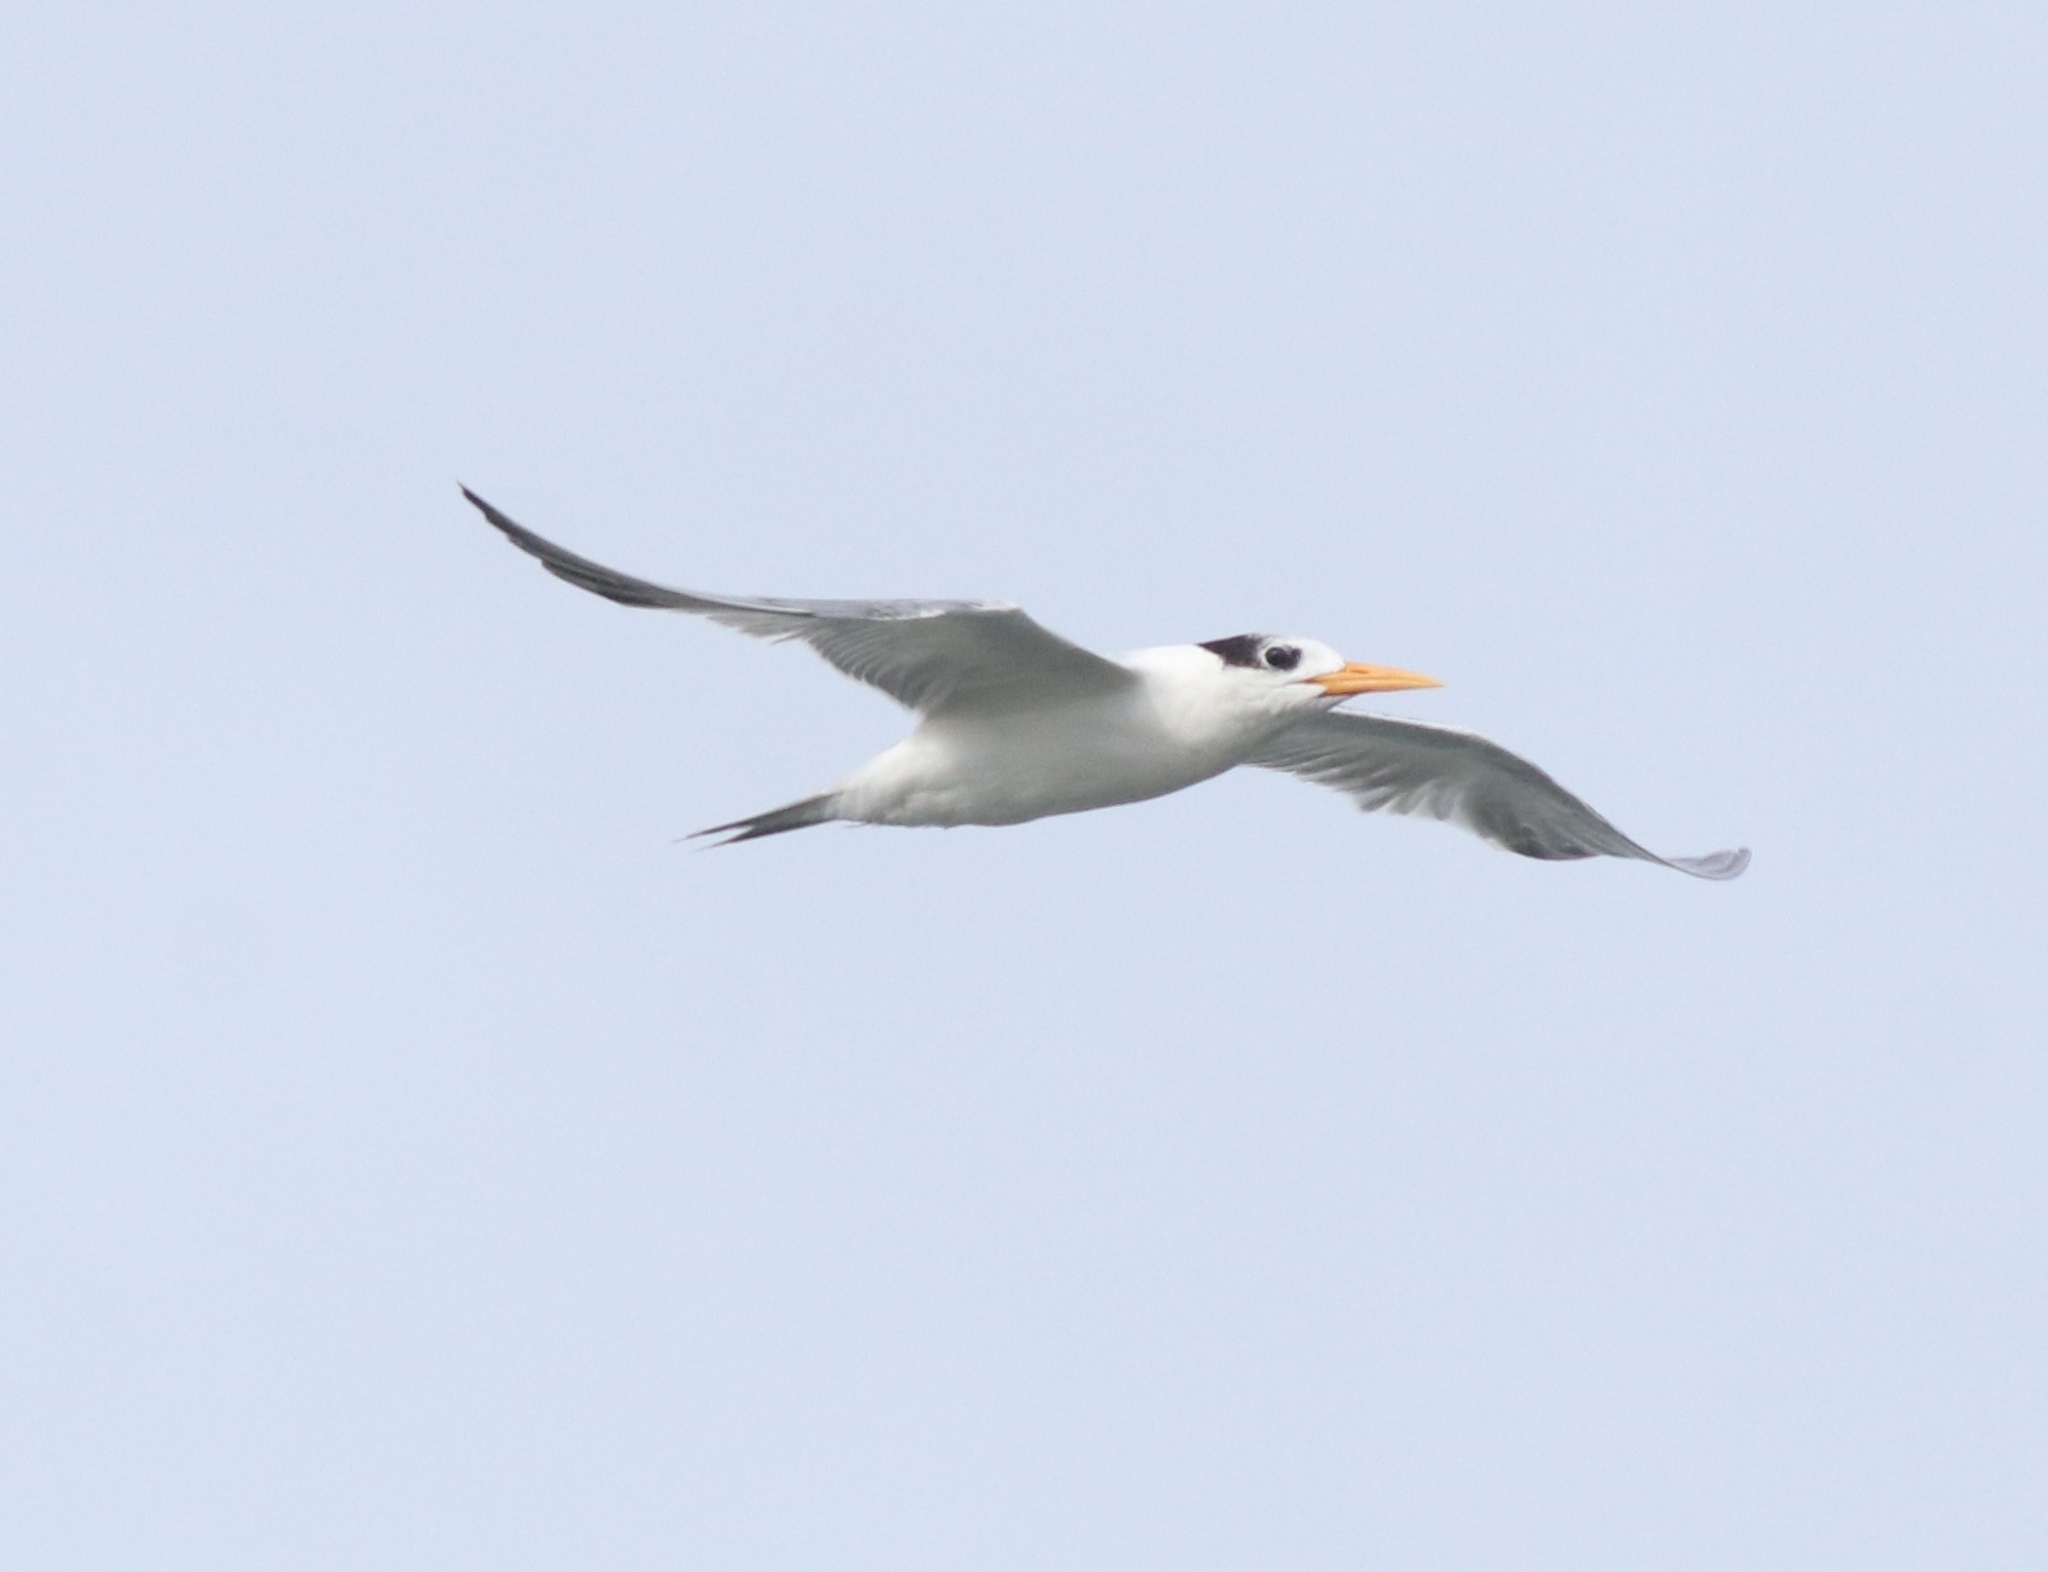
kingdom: Animalia
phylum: Chordata
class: Aves
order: Charadriiformes
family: Laridae
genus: Thalasseus
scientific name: Thalasseus bengalensis
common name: Lesser crested tern
